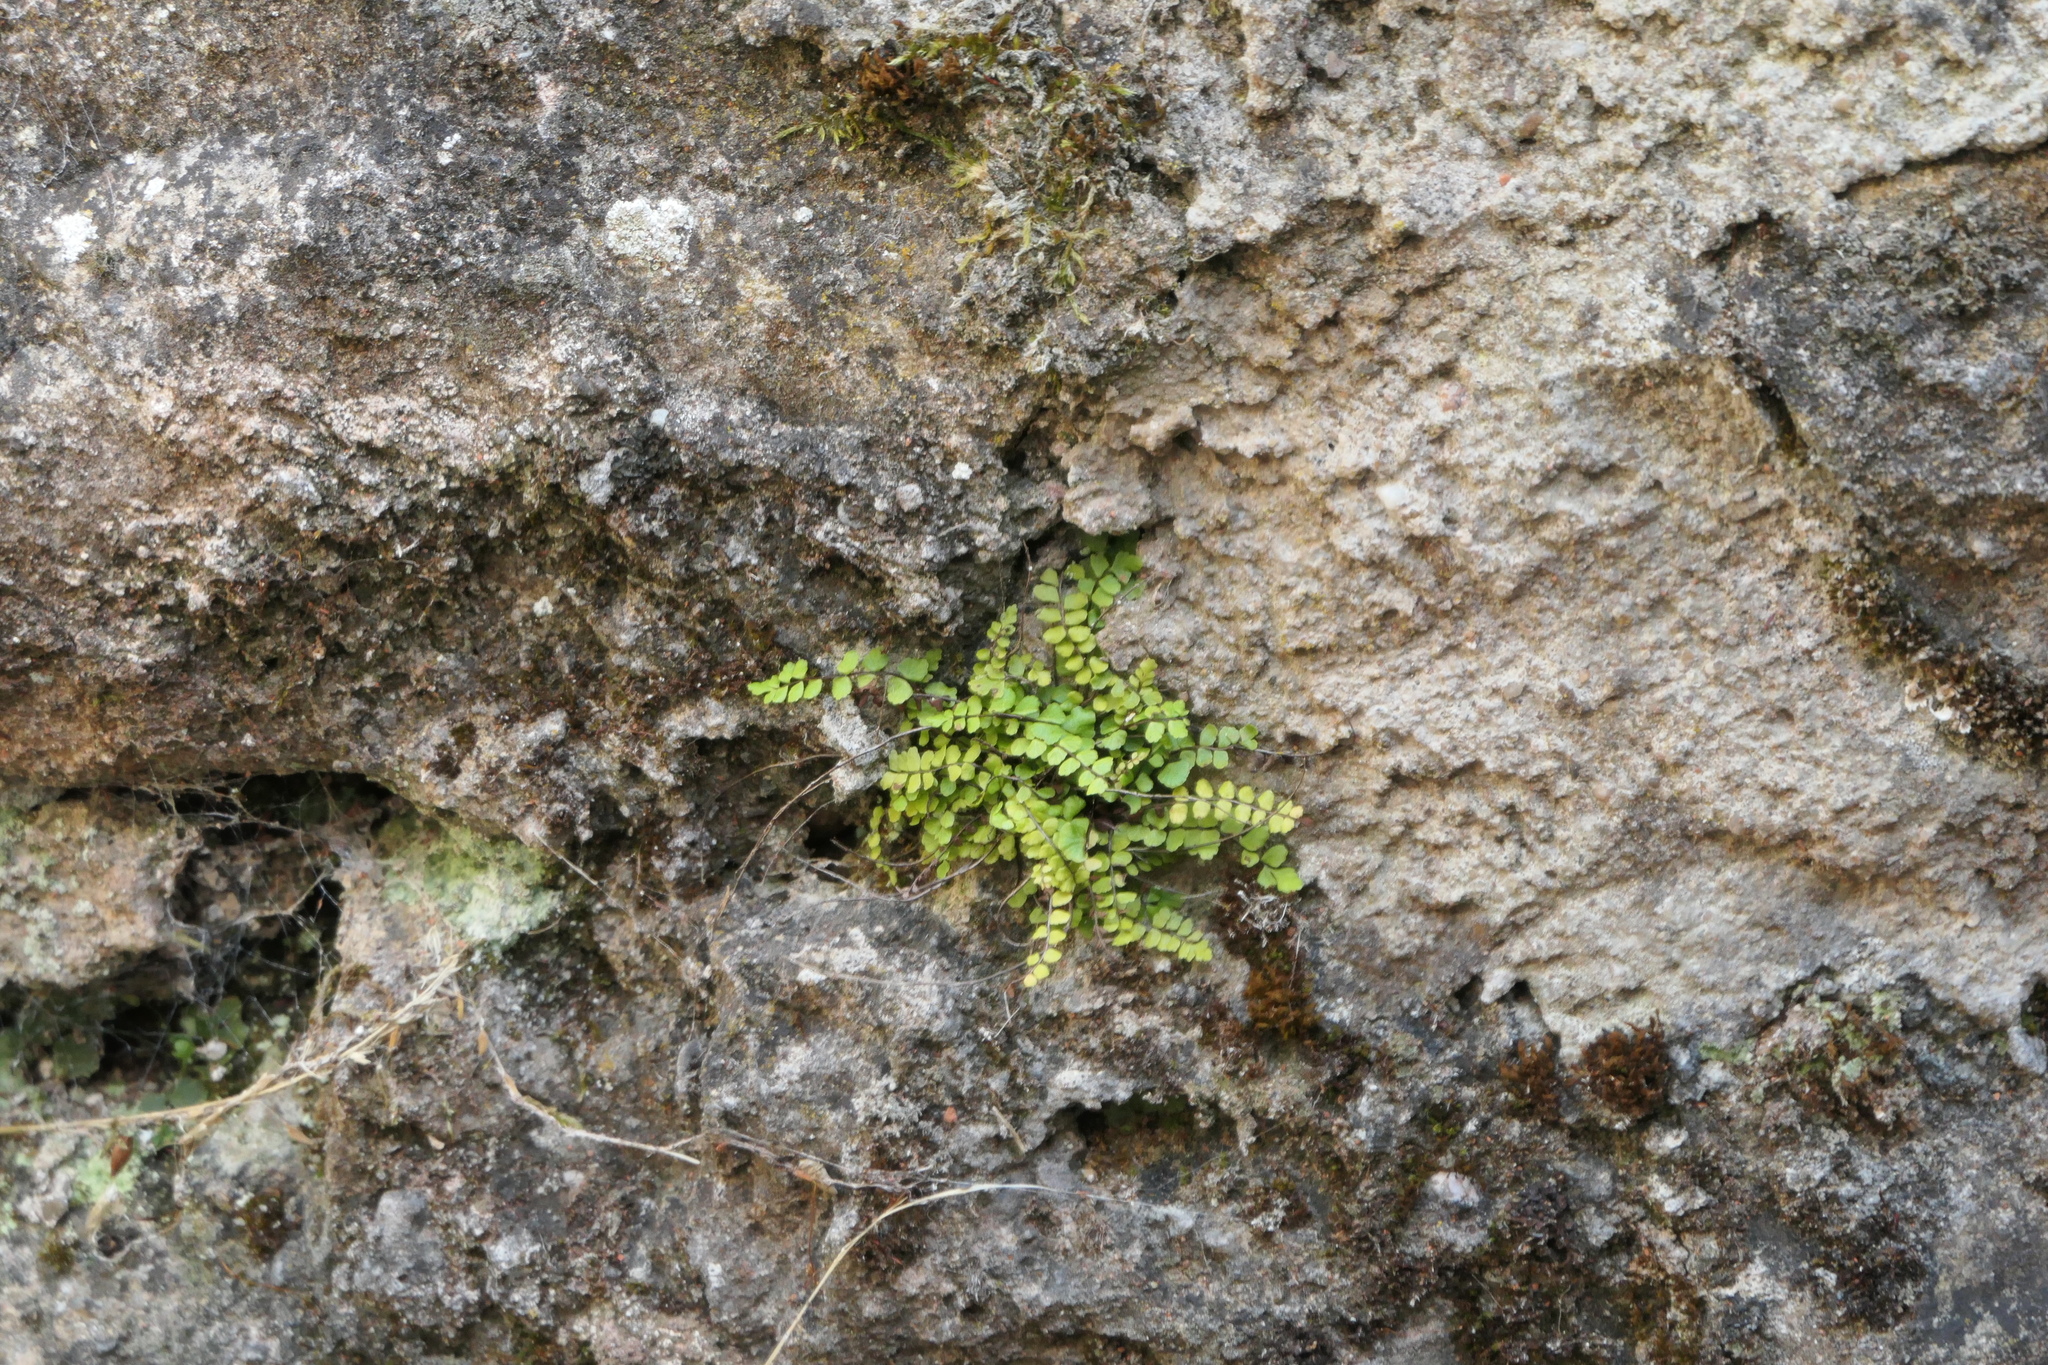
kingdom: Plantae
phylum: Tracheophyta
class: Polypodiopsida
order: Polypodiales
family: Aspleniaceae
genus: Asplenium
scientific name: Asplenium trichomanes
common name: Maidenhair spleenwort
